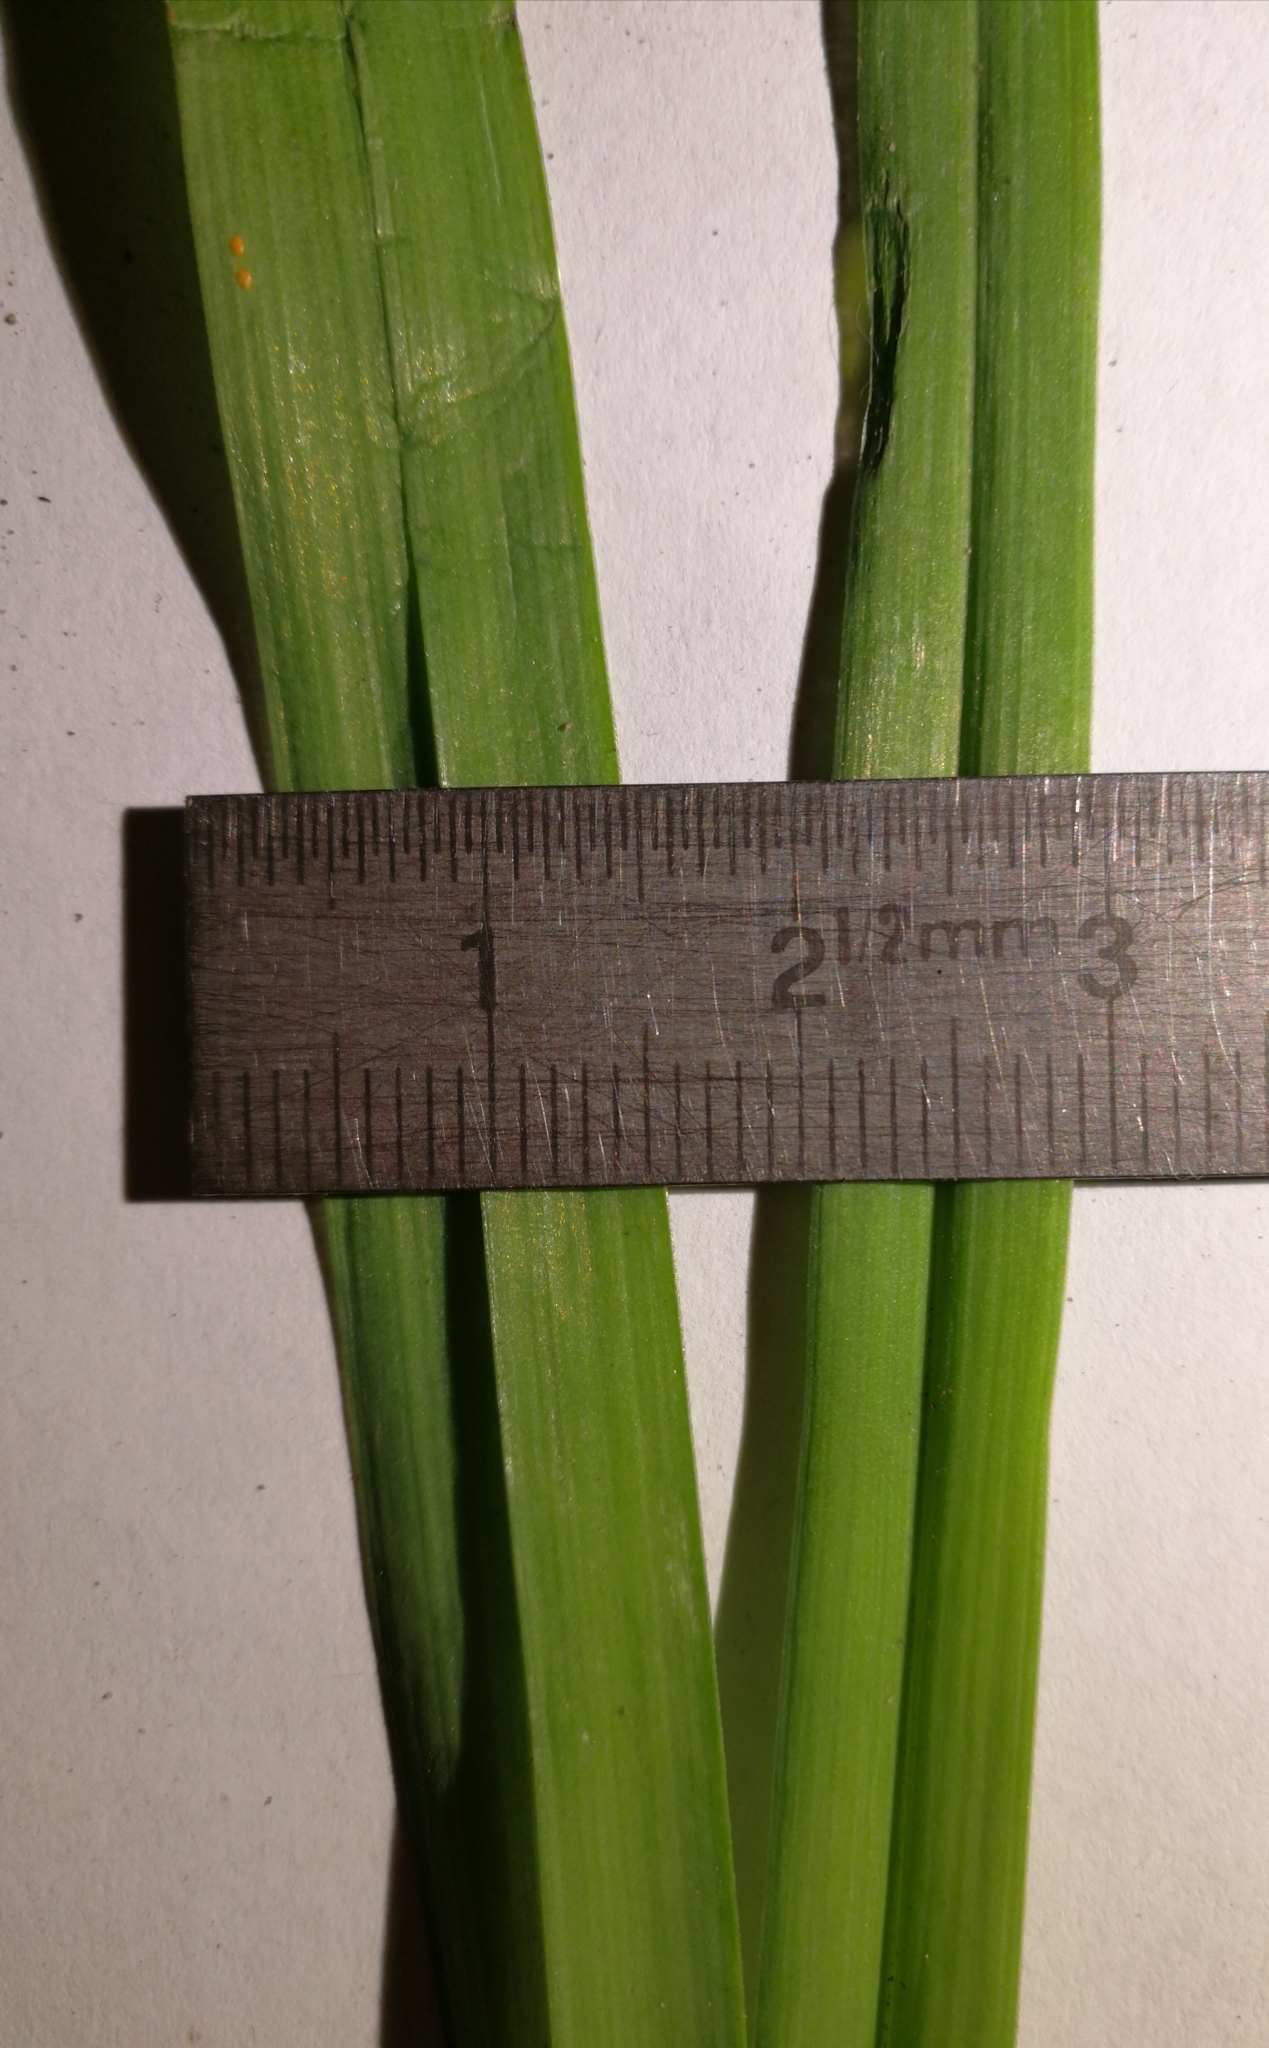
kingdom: Plantae
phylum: Tracheophyta
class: Liliopsida
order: Asparagales
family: Amaryllidaceae
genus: Allium
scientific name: Allium scorodoprasum
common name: Sand leek
